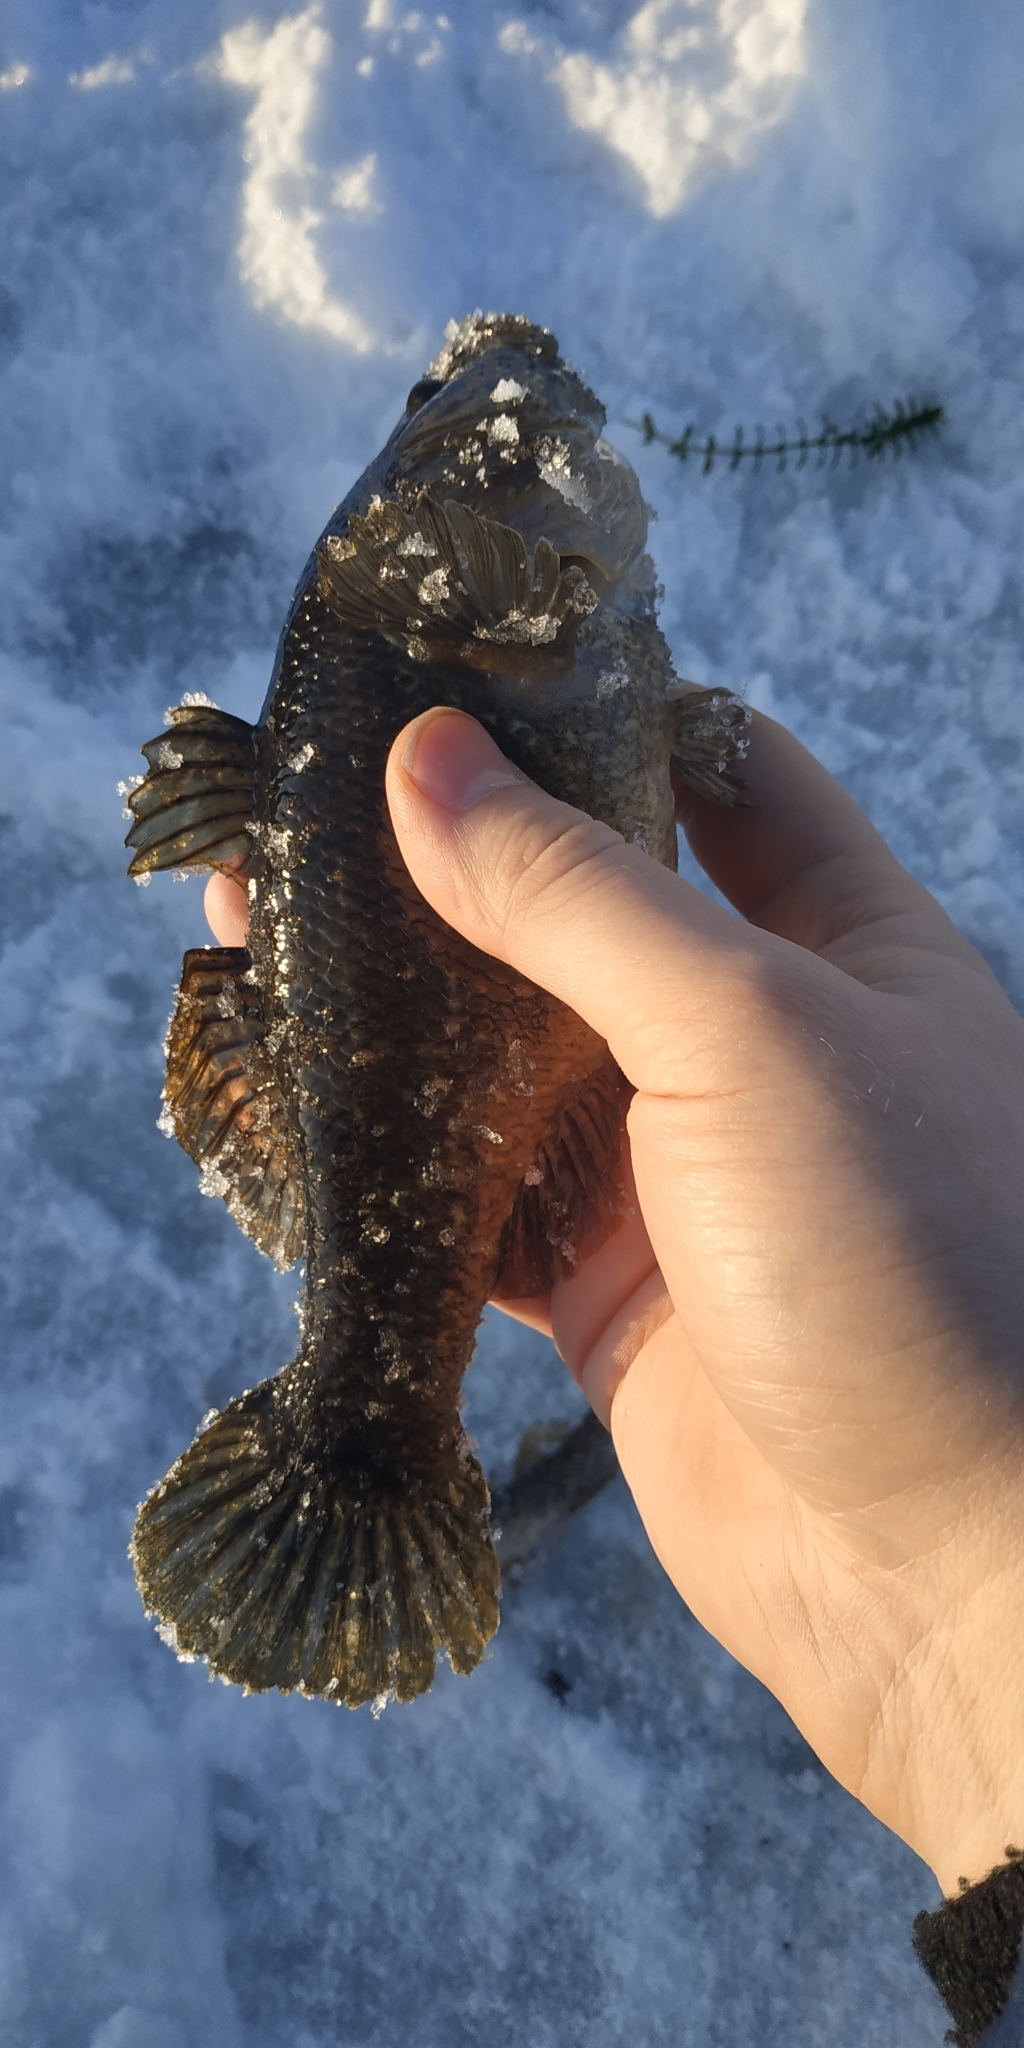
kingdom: Animalia
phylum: Chordata
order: Perciformes
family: Odontobutidae
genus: Perccottus
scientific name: Perccottus glenii
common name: Amur sleeper
